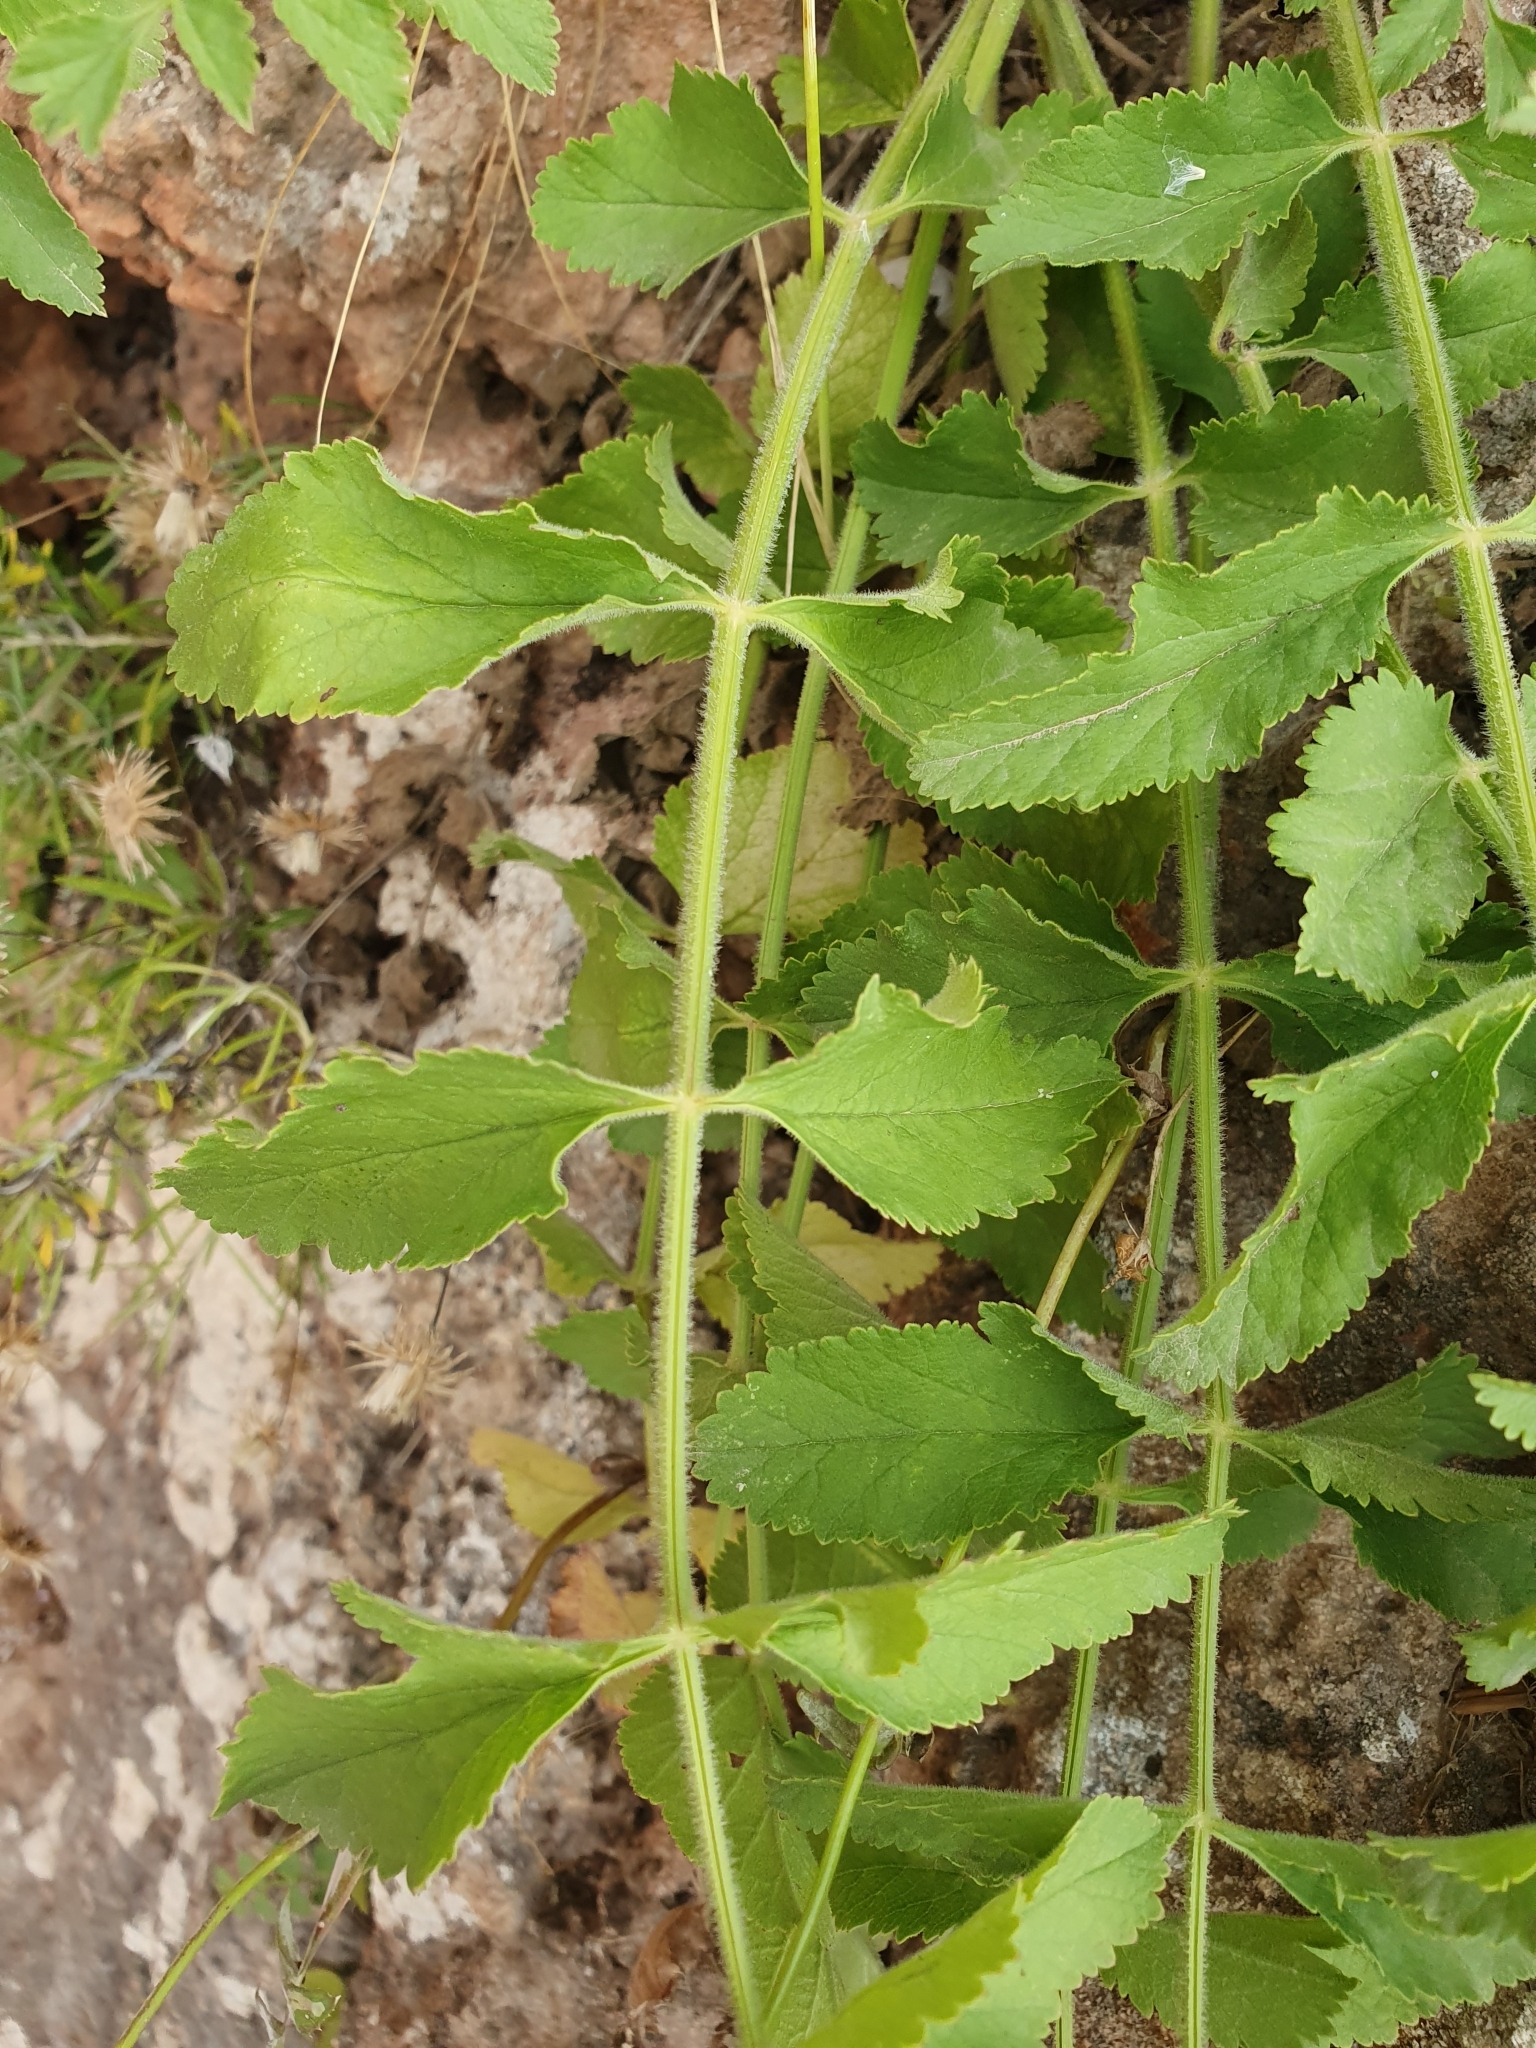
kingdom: Plantae
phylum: Tracheophyta
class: Magnoliopsida
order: Apiales
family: Apiaceae
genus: Pimpinella
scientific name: Pimpinella lutea
